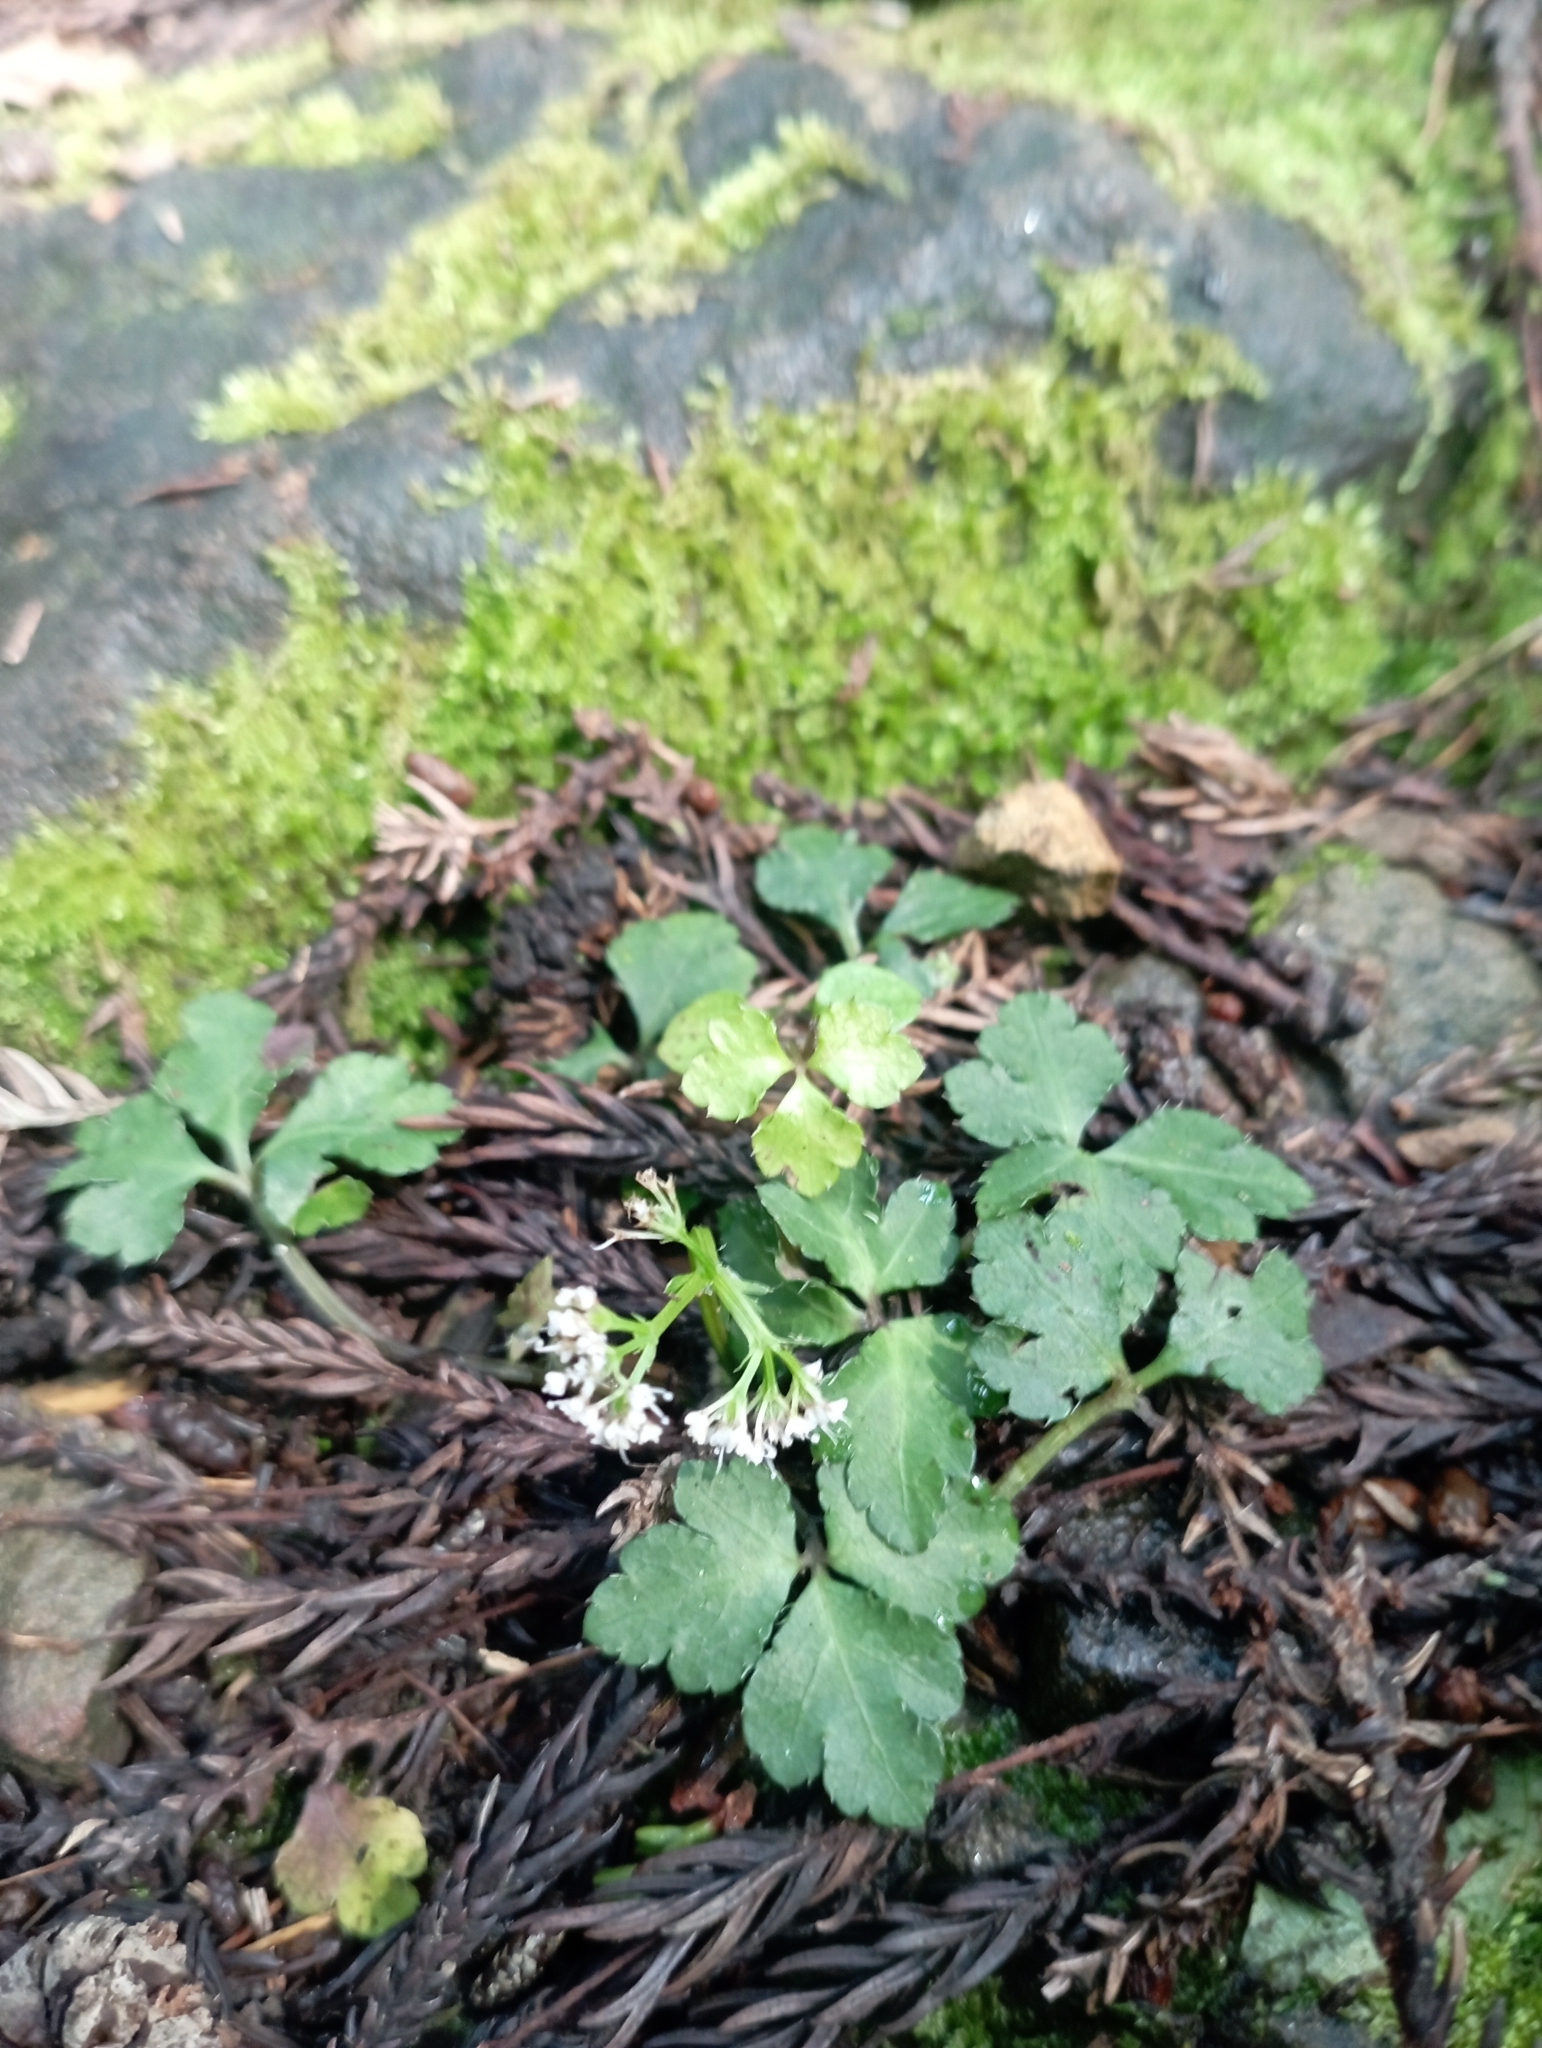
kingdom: Plantae
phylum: Tracheophyta
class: Magnoliopsida
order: Apiales
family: Apiaceae
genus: Sanicula
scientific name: Sanicula lamelligera
